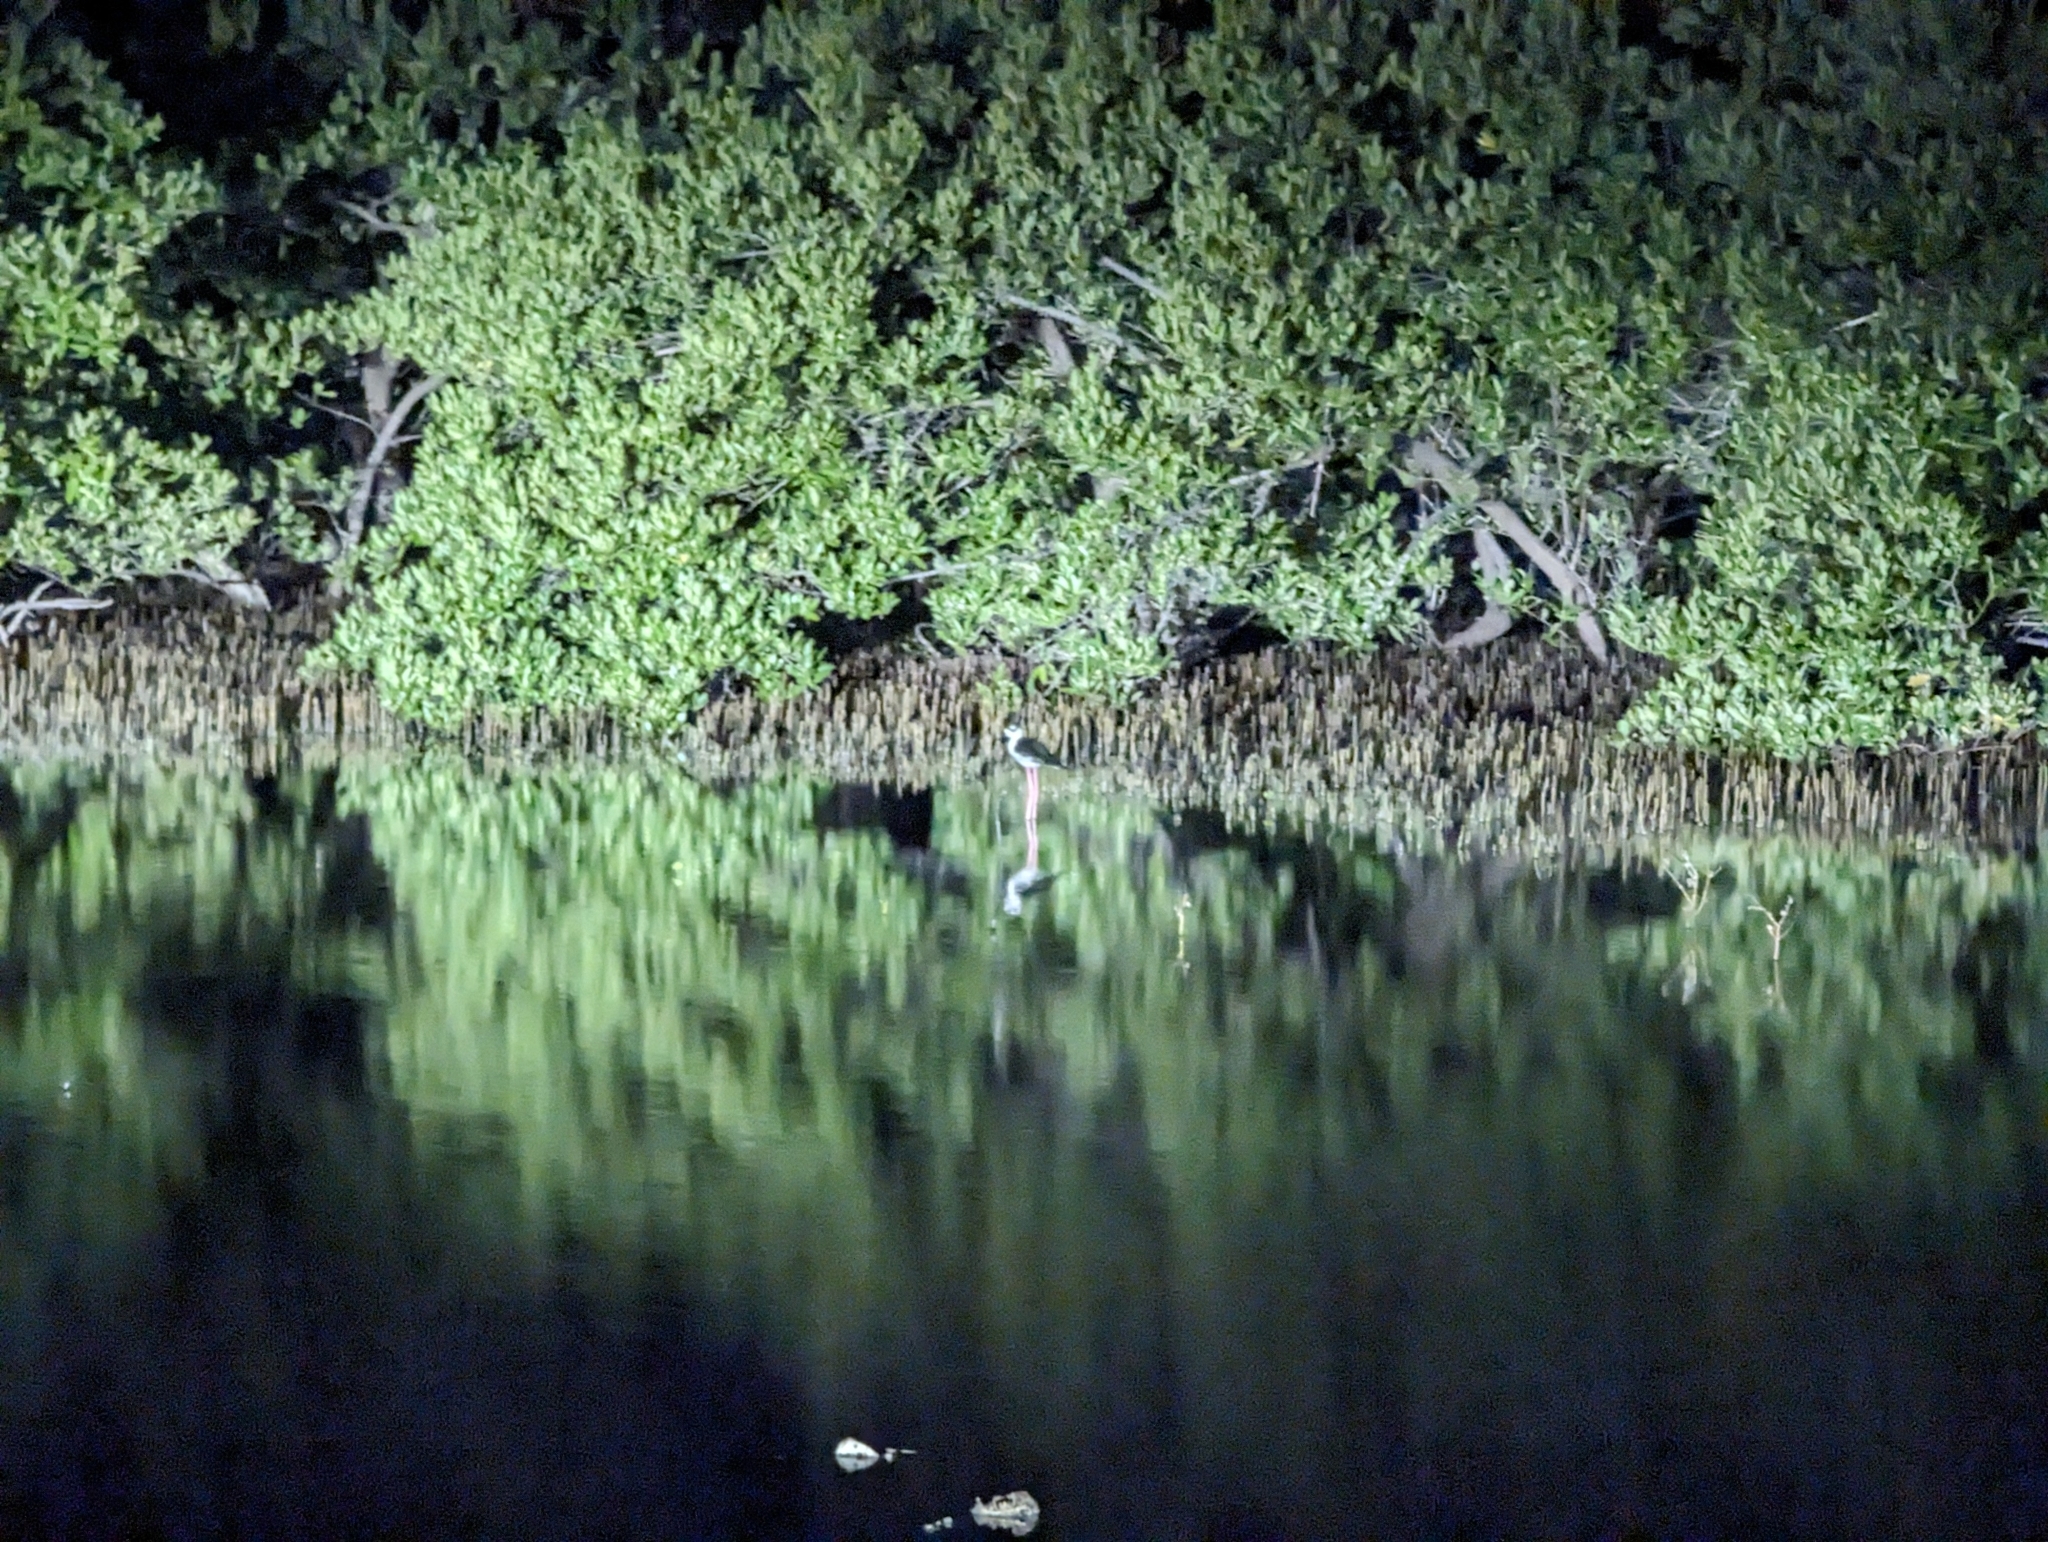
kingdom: Animalia
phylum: Chordata
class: Aves
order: Charadriiformes
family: Recurvirostridae
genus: Himantopus
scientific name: Himantopus mexicanus
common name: Black-necked stilt
